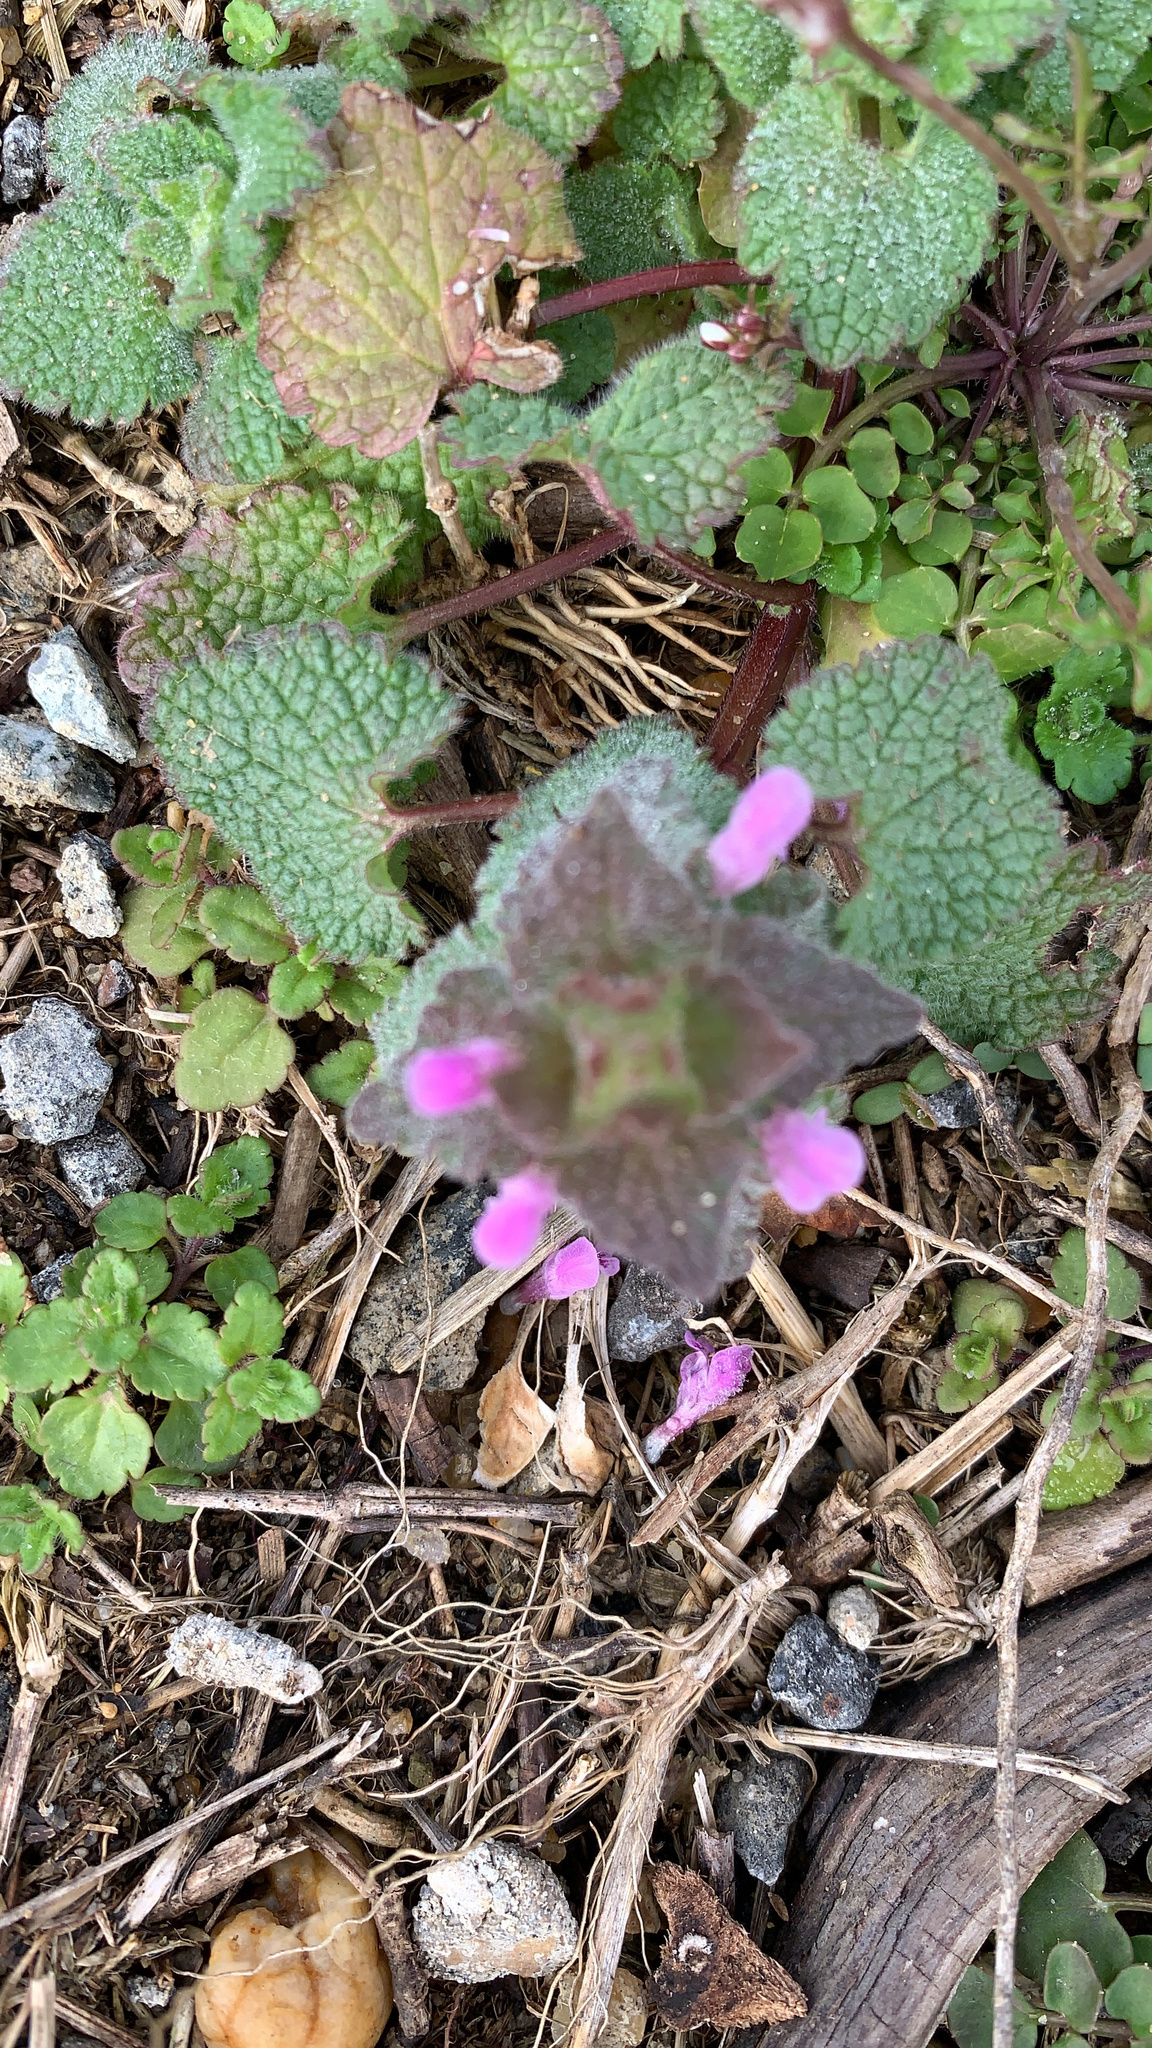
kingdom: Plantae
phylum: Tracheophyta
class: Magnoliopsida
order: Lamiales
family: Lamiaceae
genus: Lamium
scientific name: Lamium purpureum
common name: Red dead-nettle
